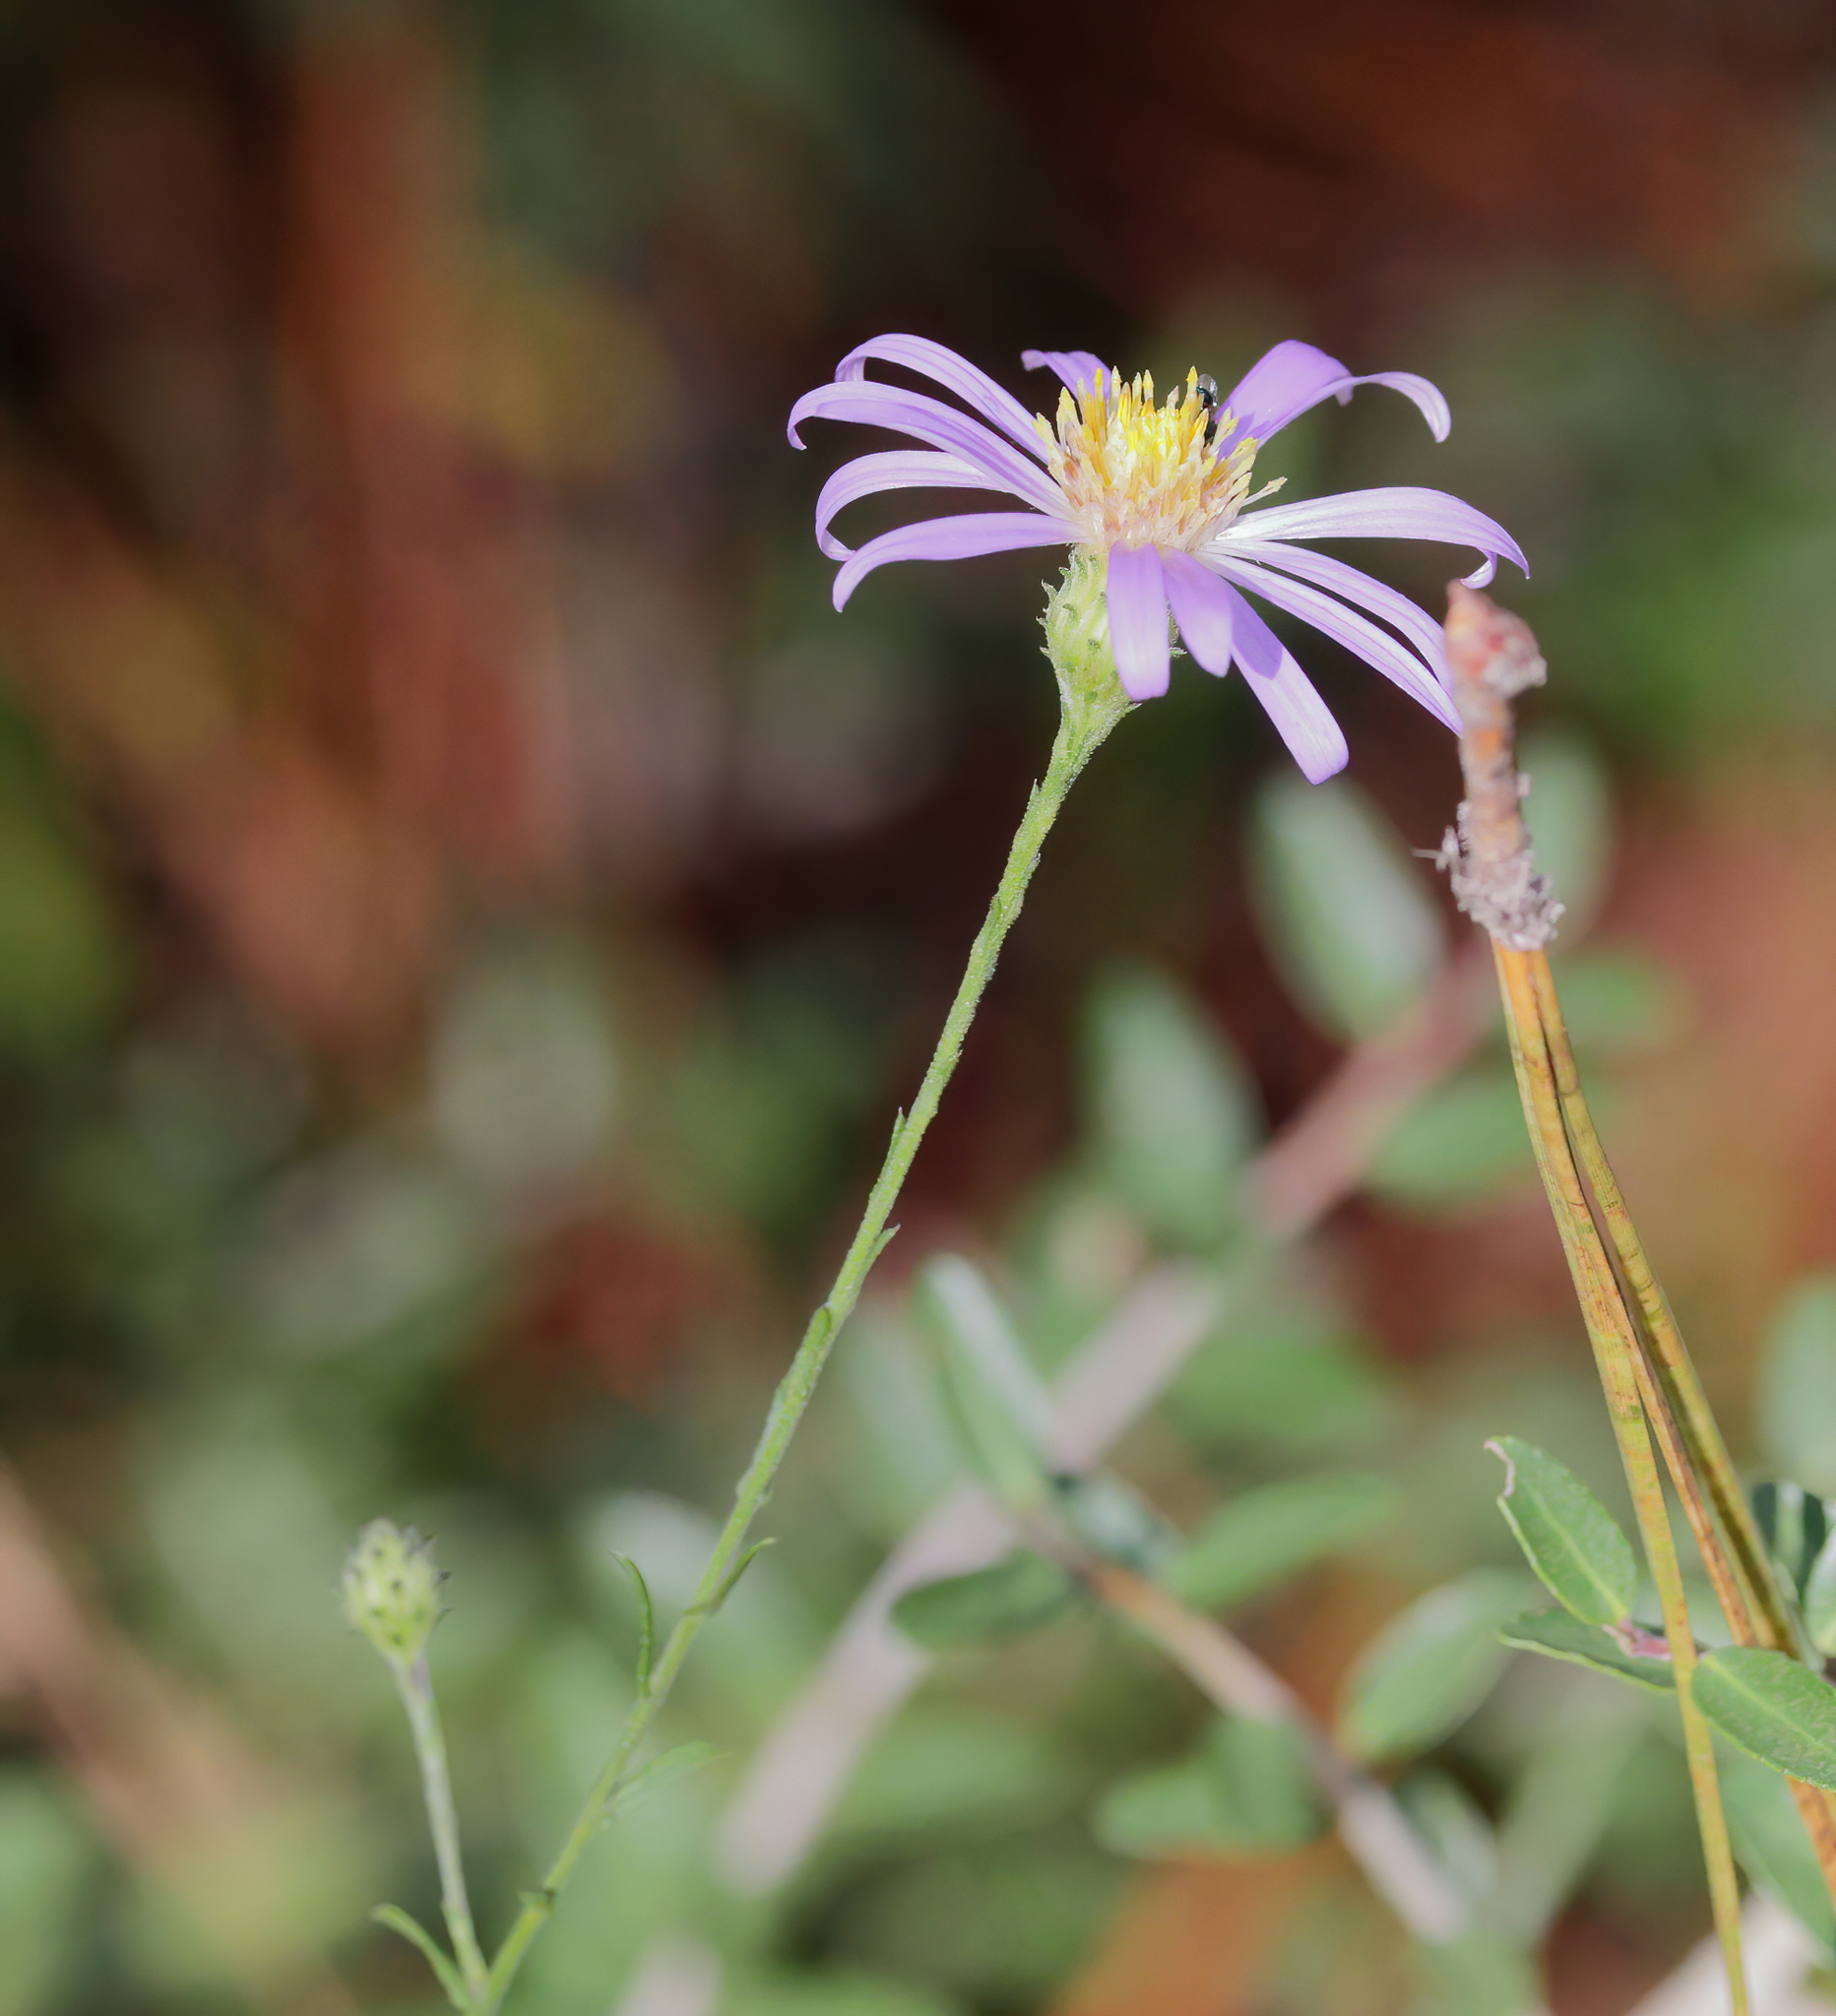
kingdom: Plantae
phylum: Tracheophyta
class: Magnoliopsida
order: Asterales
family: Asteraceae
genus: Symphyotrichum
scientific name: Symphyotrichum patens
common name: Late purple aster
